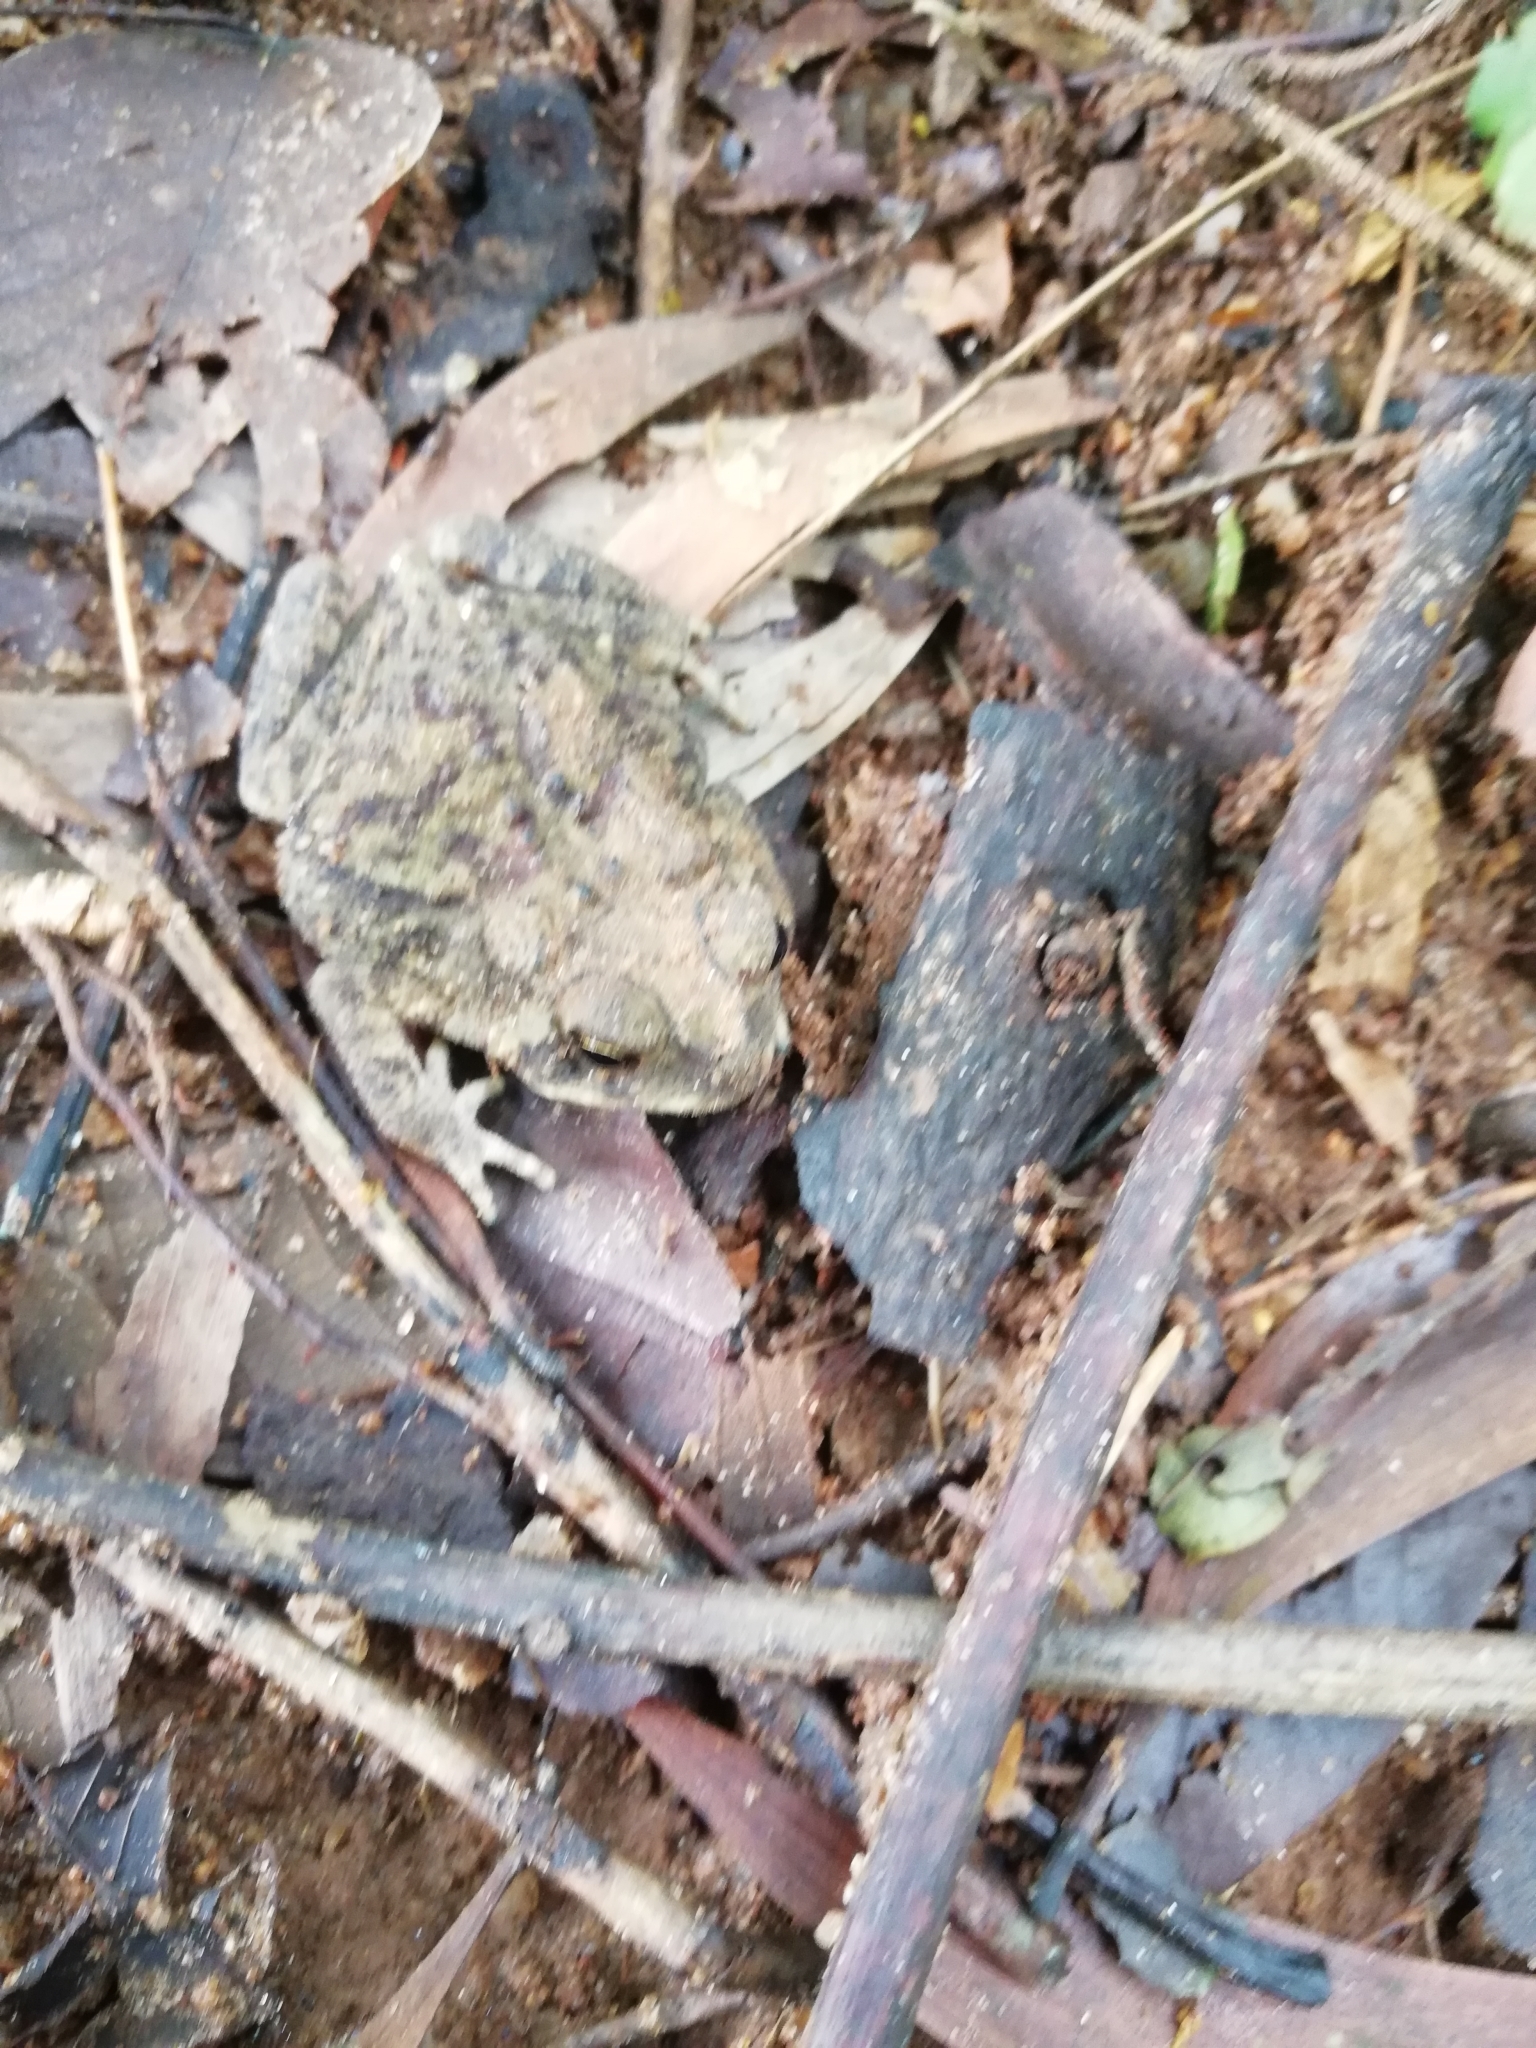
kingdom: Animalia
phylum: Chordata
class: Amphibia
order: Anura
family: Bufonidae
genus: Duttaphrynus
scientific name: Duttaphrynus melanostictus
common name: Common sunda toad
